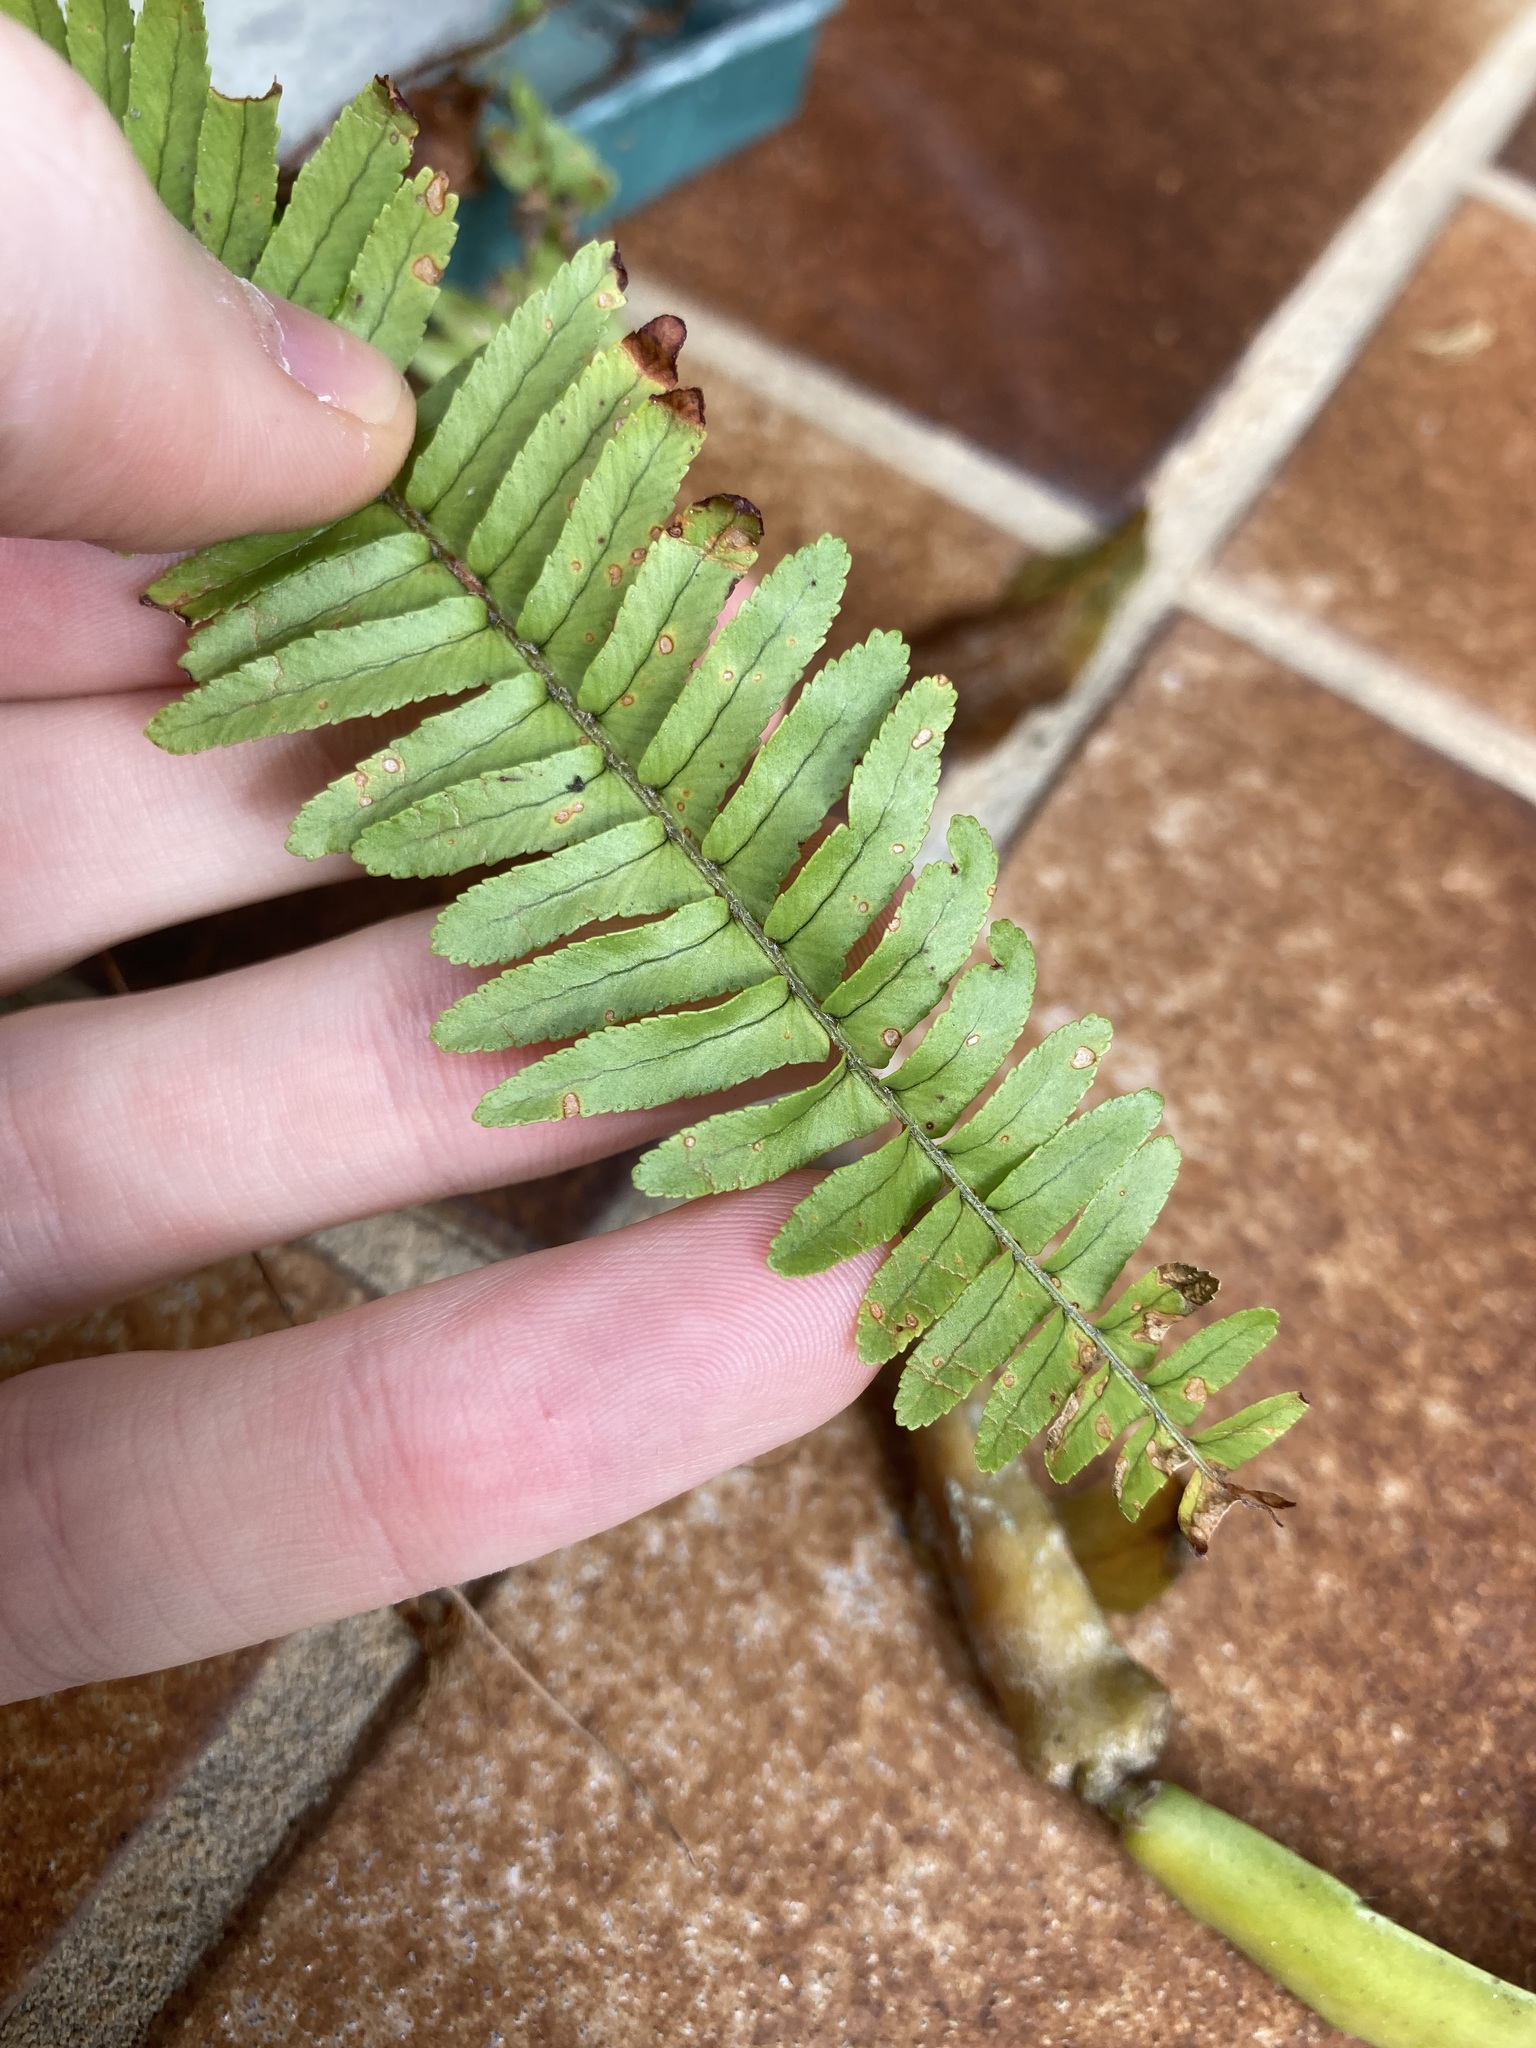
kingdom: Plantae
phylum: Tracheophyta
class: Polypodiopsida
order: Polypodiales
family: Nephrolepidaceae
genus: Nephrolepis
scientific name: Nephrolepis cordifolia
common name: Narrow swordfern
